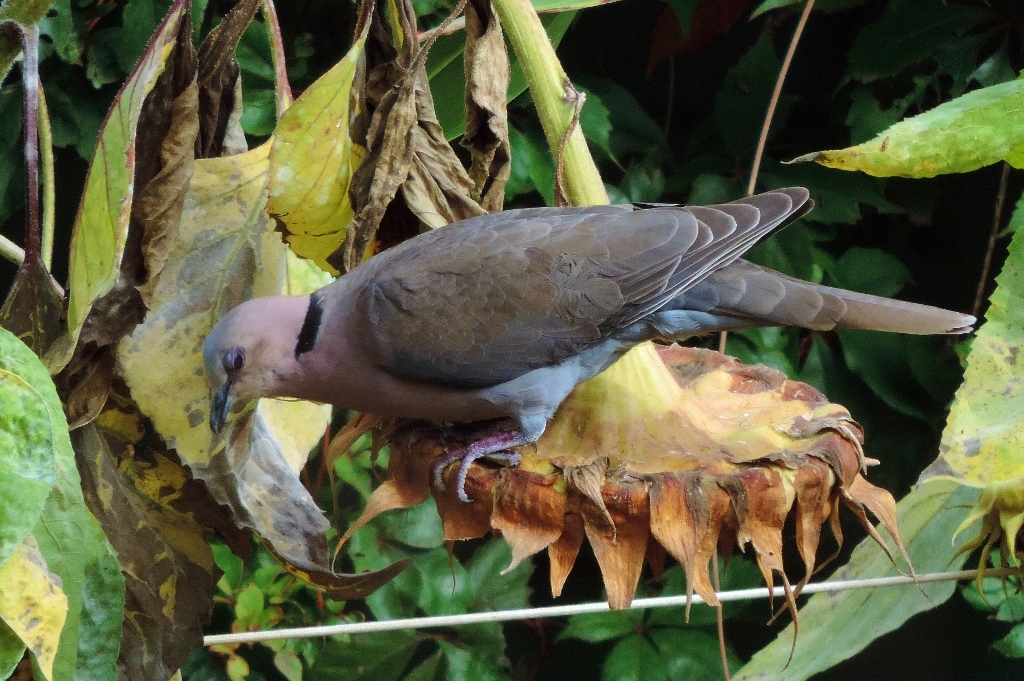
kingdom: Animalia
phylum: Chordata
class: Aves
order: Columbiformes
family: Columbidae
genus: Streptopelia
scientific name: Streptopelia semitorquata
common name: Red-eyed dove
